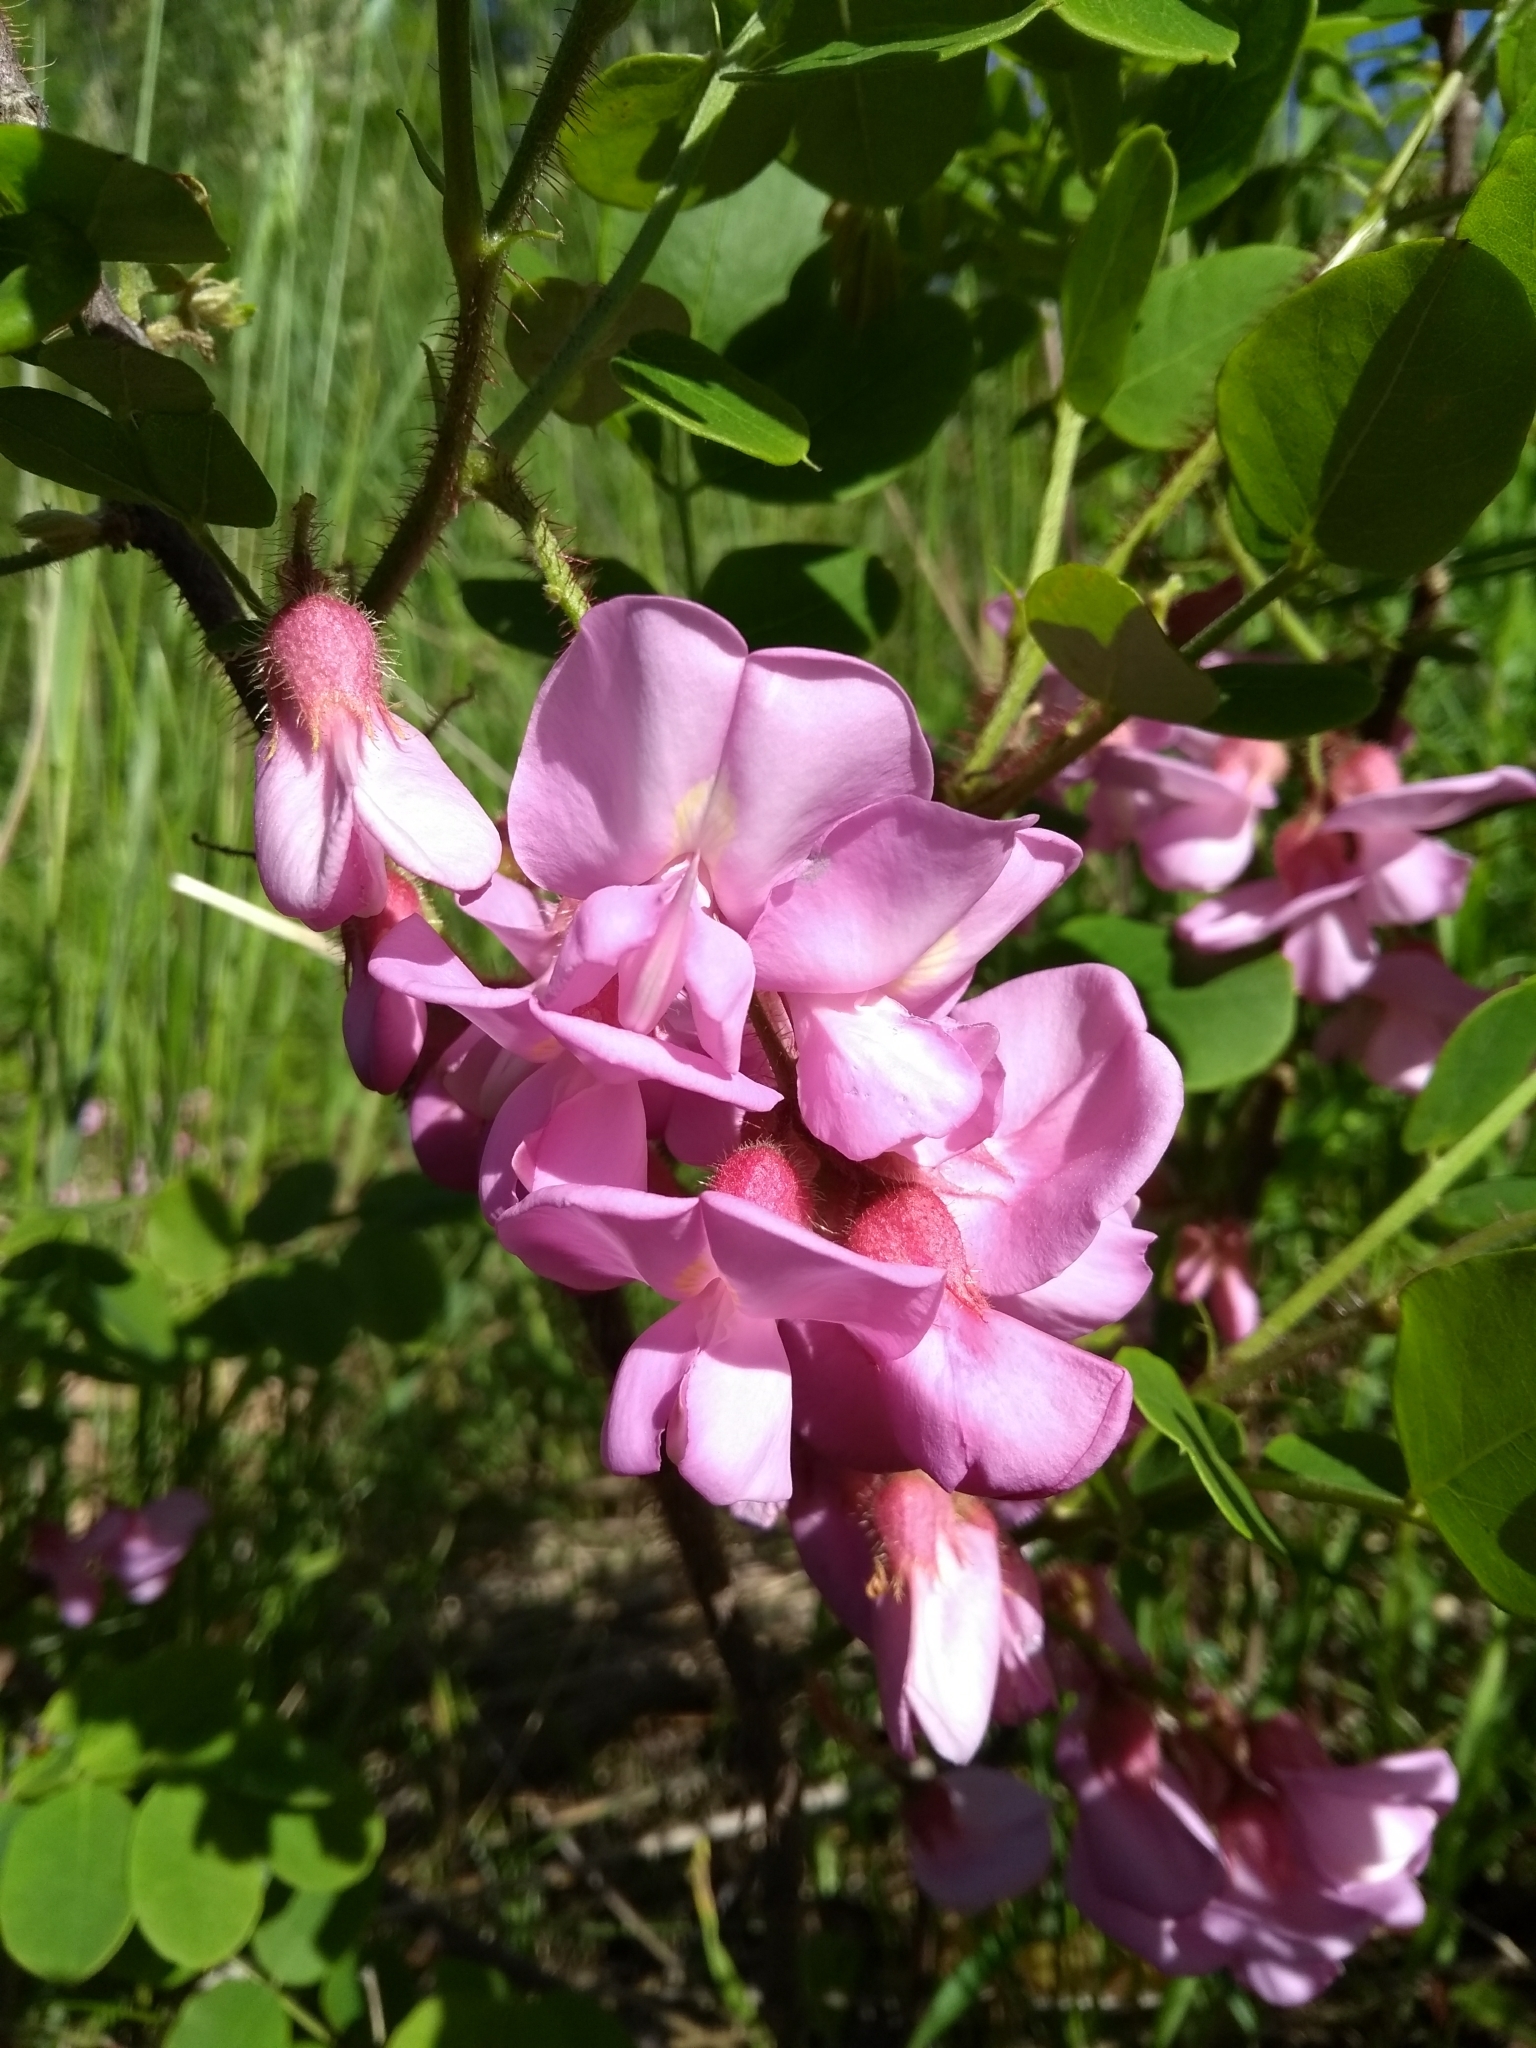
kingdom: Plantae
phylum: Tracheophyta
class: Magnoliopsida
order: Fabales
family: Fabaceae
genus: Robinia
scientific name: Robinia hispida
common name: Bristly locust
